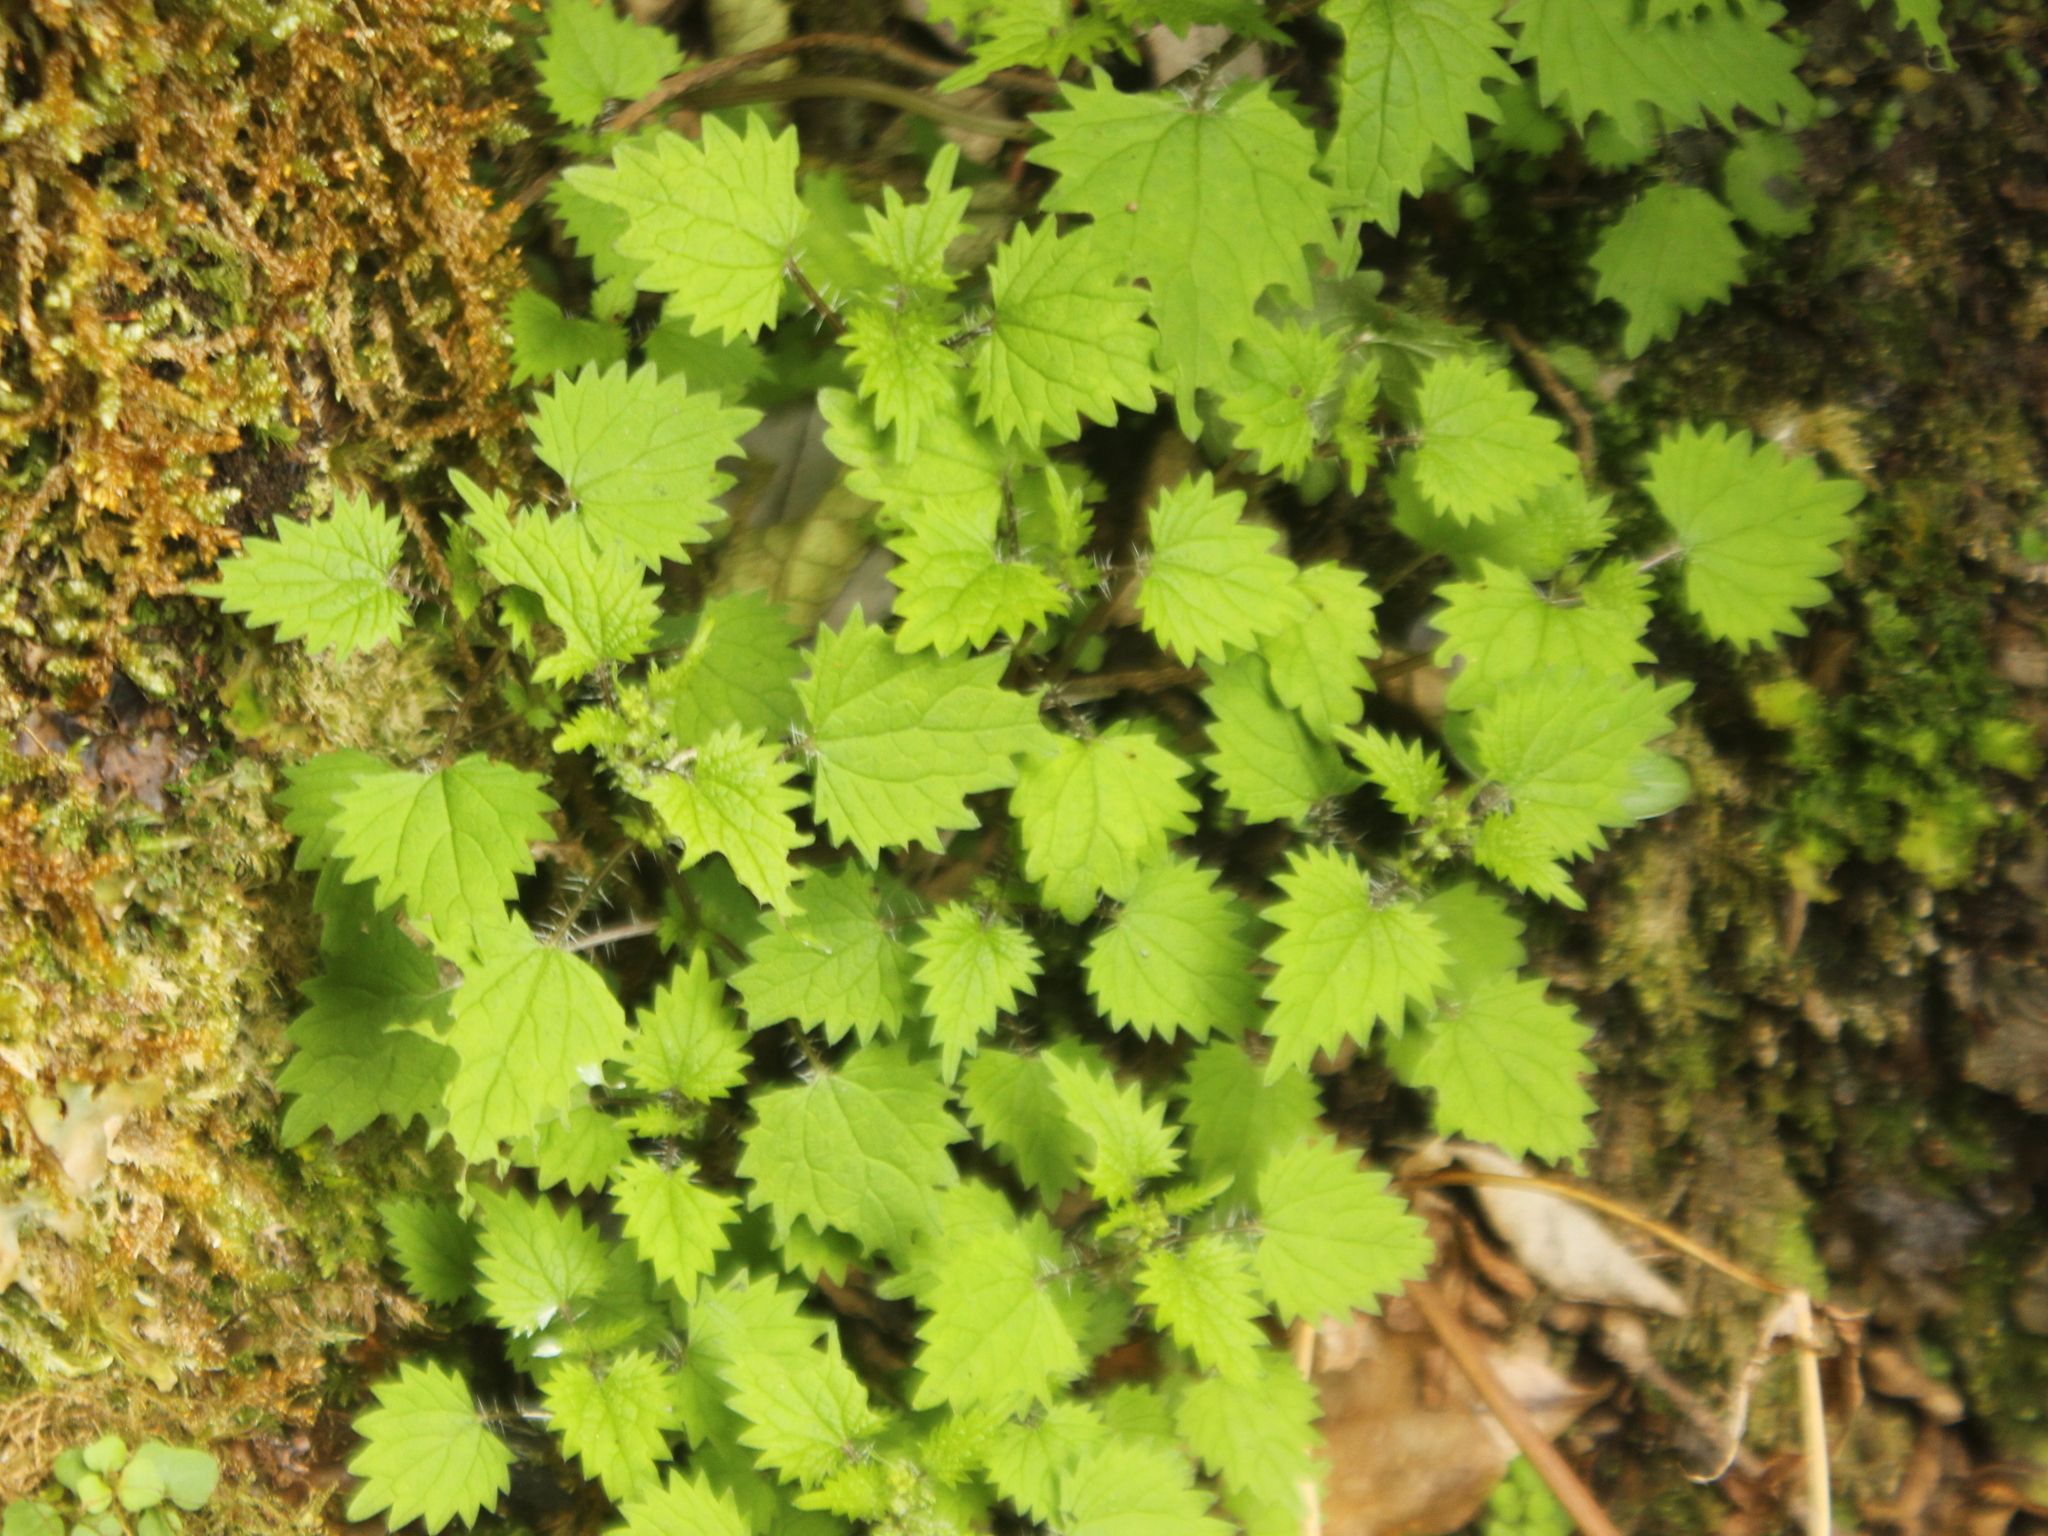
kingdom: Plantae
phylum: Tracheophyta
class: Magnoliopsida
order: Rosales
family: Urticaceae
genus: Urtica
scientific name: Urtica sykesii
